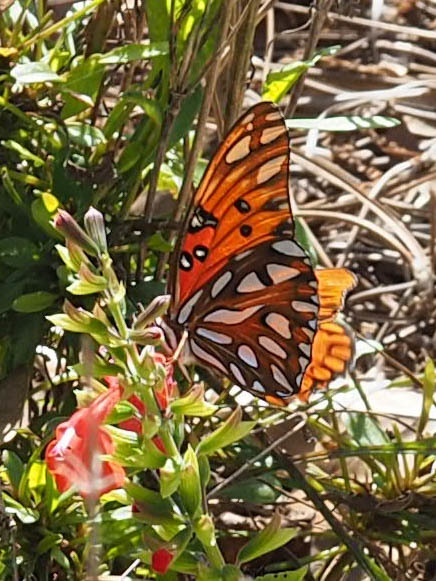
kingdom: Animalia
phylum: Arthropoda
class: Insecta
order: Lepidoptera
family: Nymphalidae
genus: Dione
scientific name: Dione vanillae
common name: Gulf fritillary
